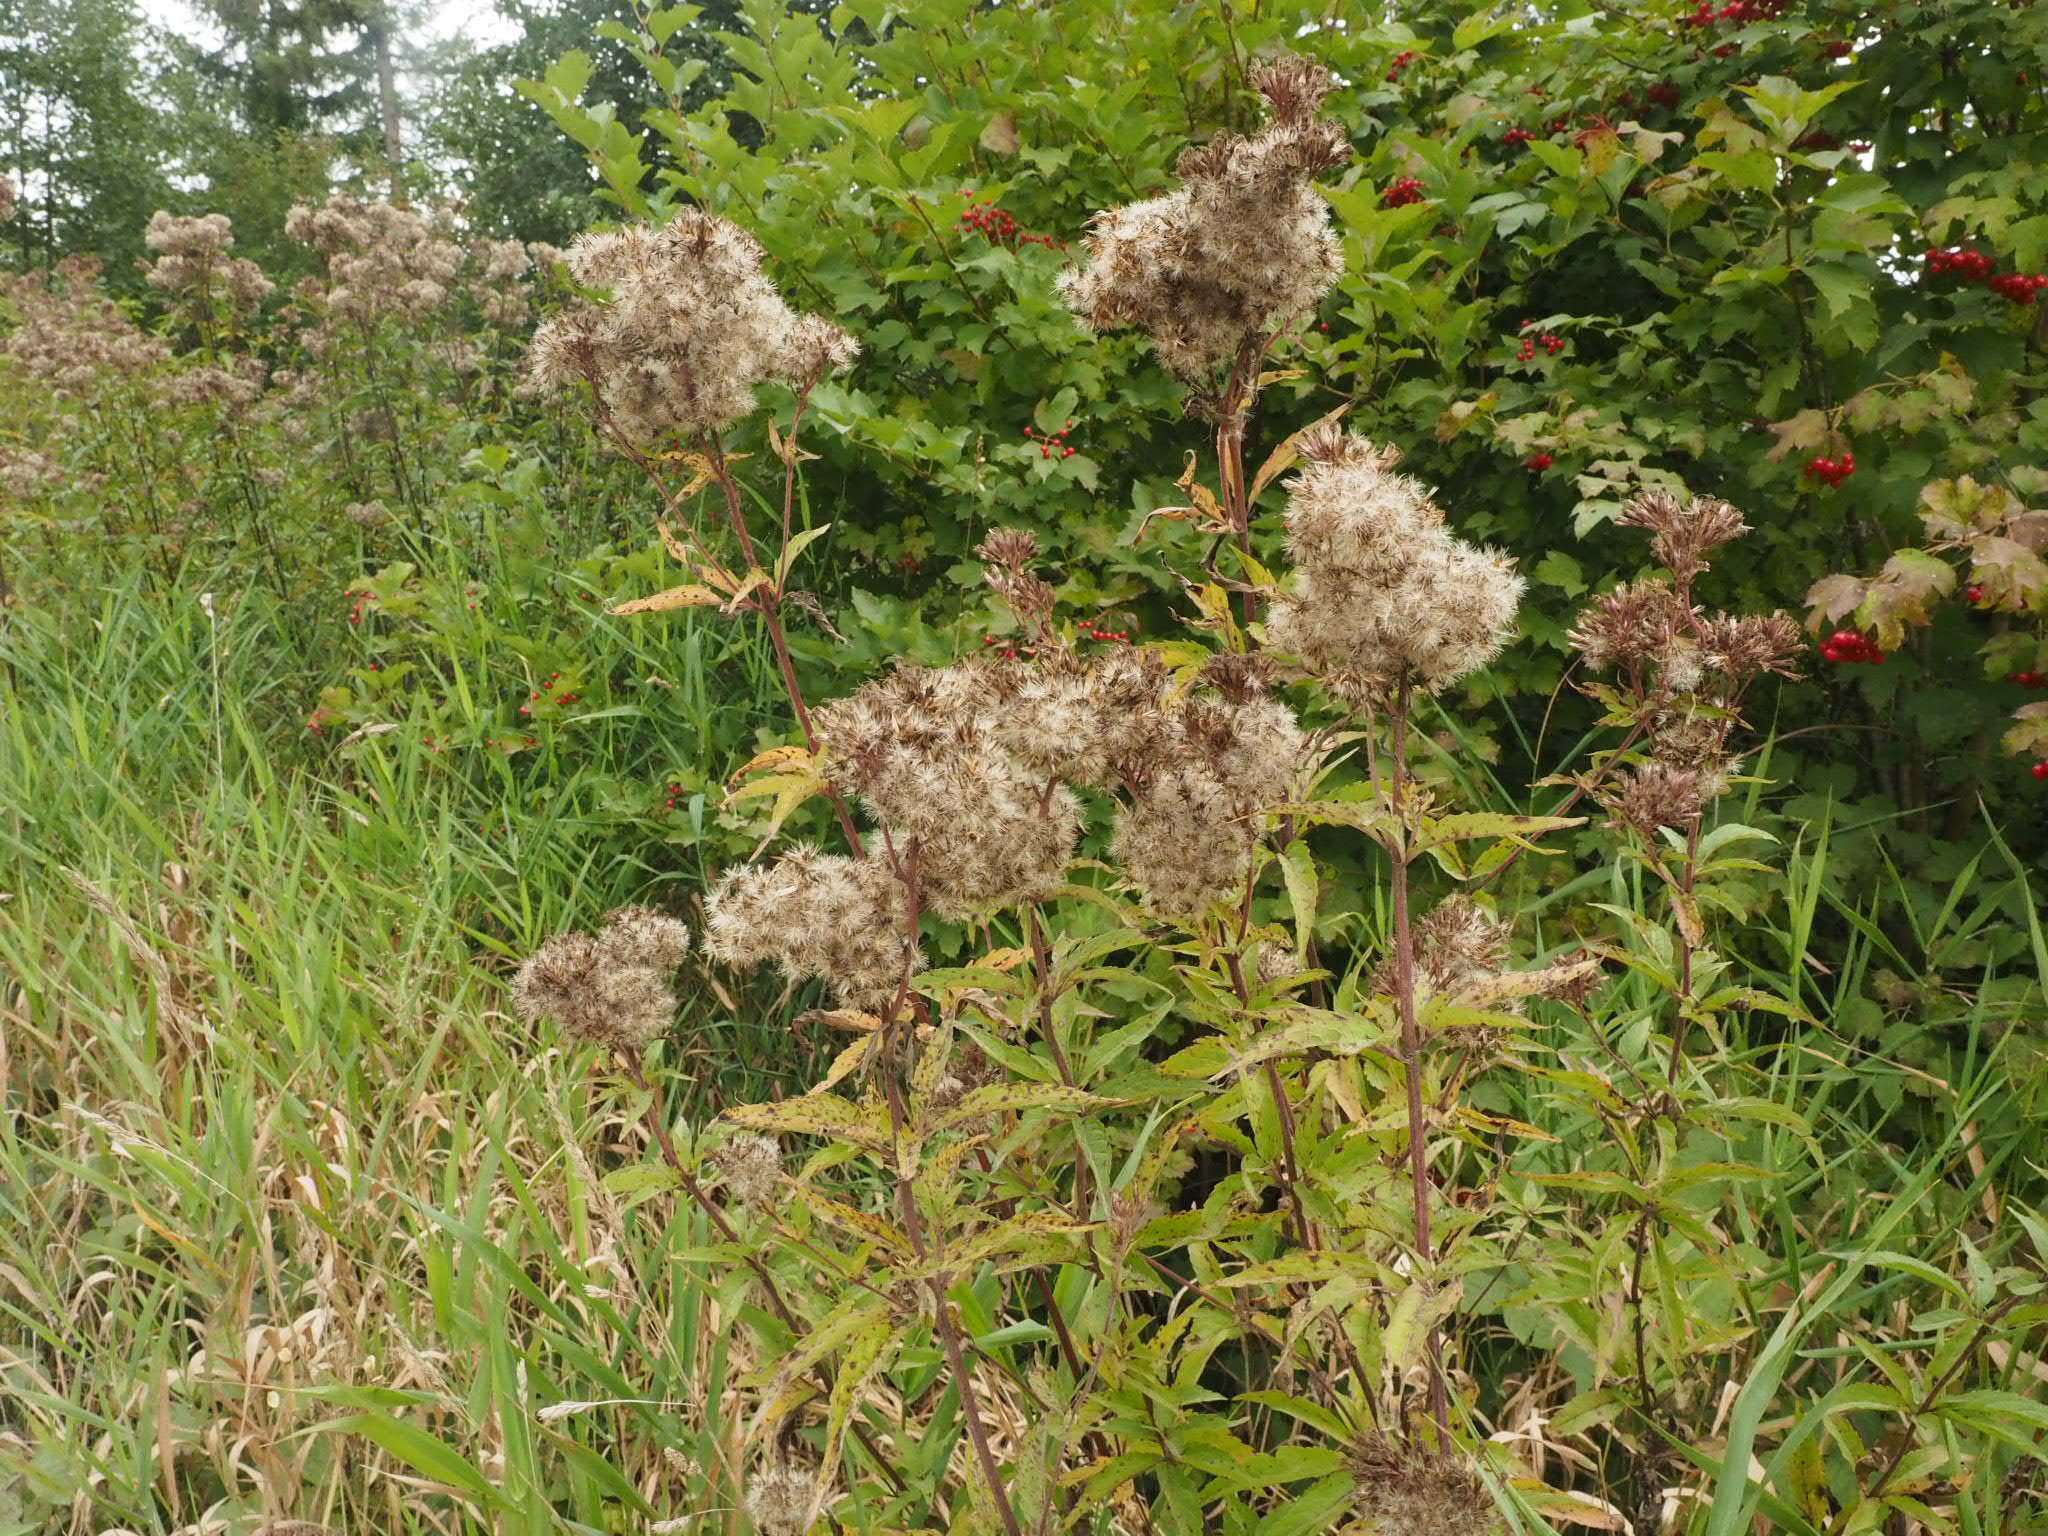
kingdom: Plantae
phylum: Tracheophyta
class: Magnoliopsida
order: Asterales
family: Asteraceae
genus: Eupatorium
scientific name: Eupatorium cannabinum
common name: Hemp-agrimony
